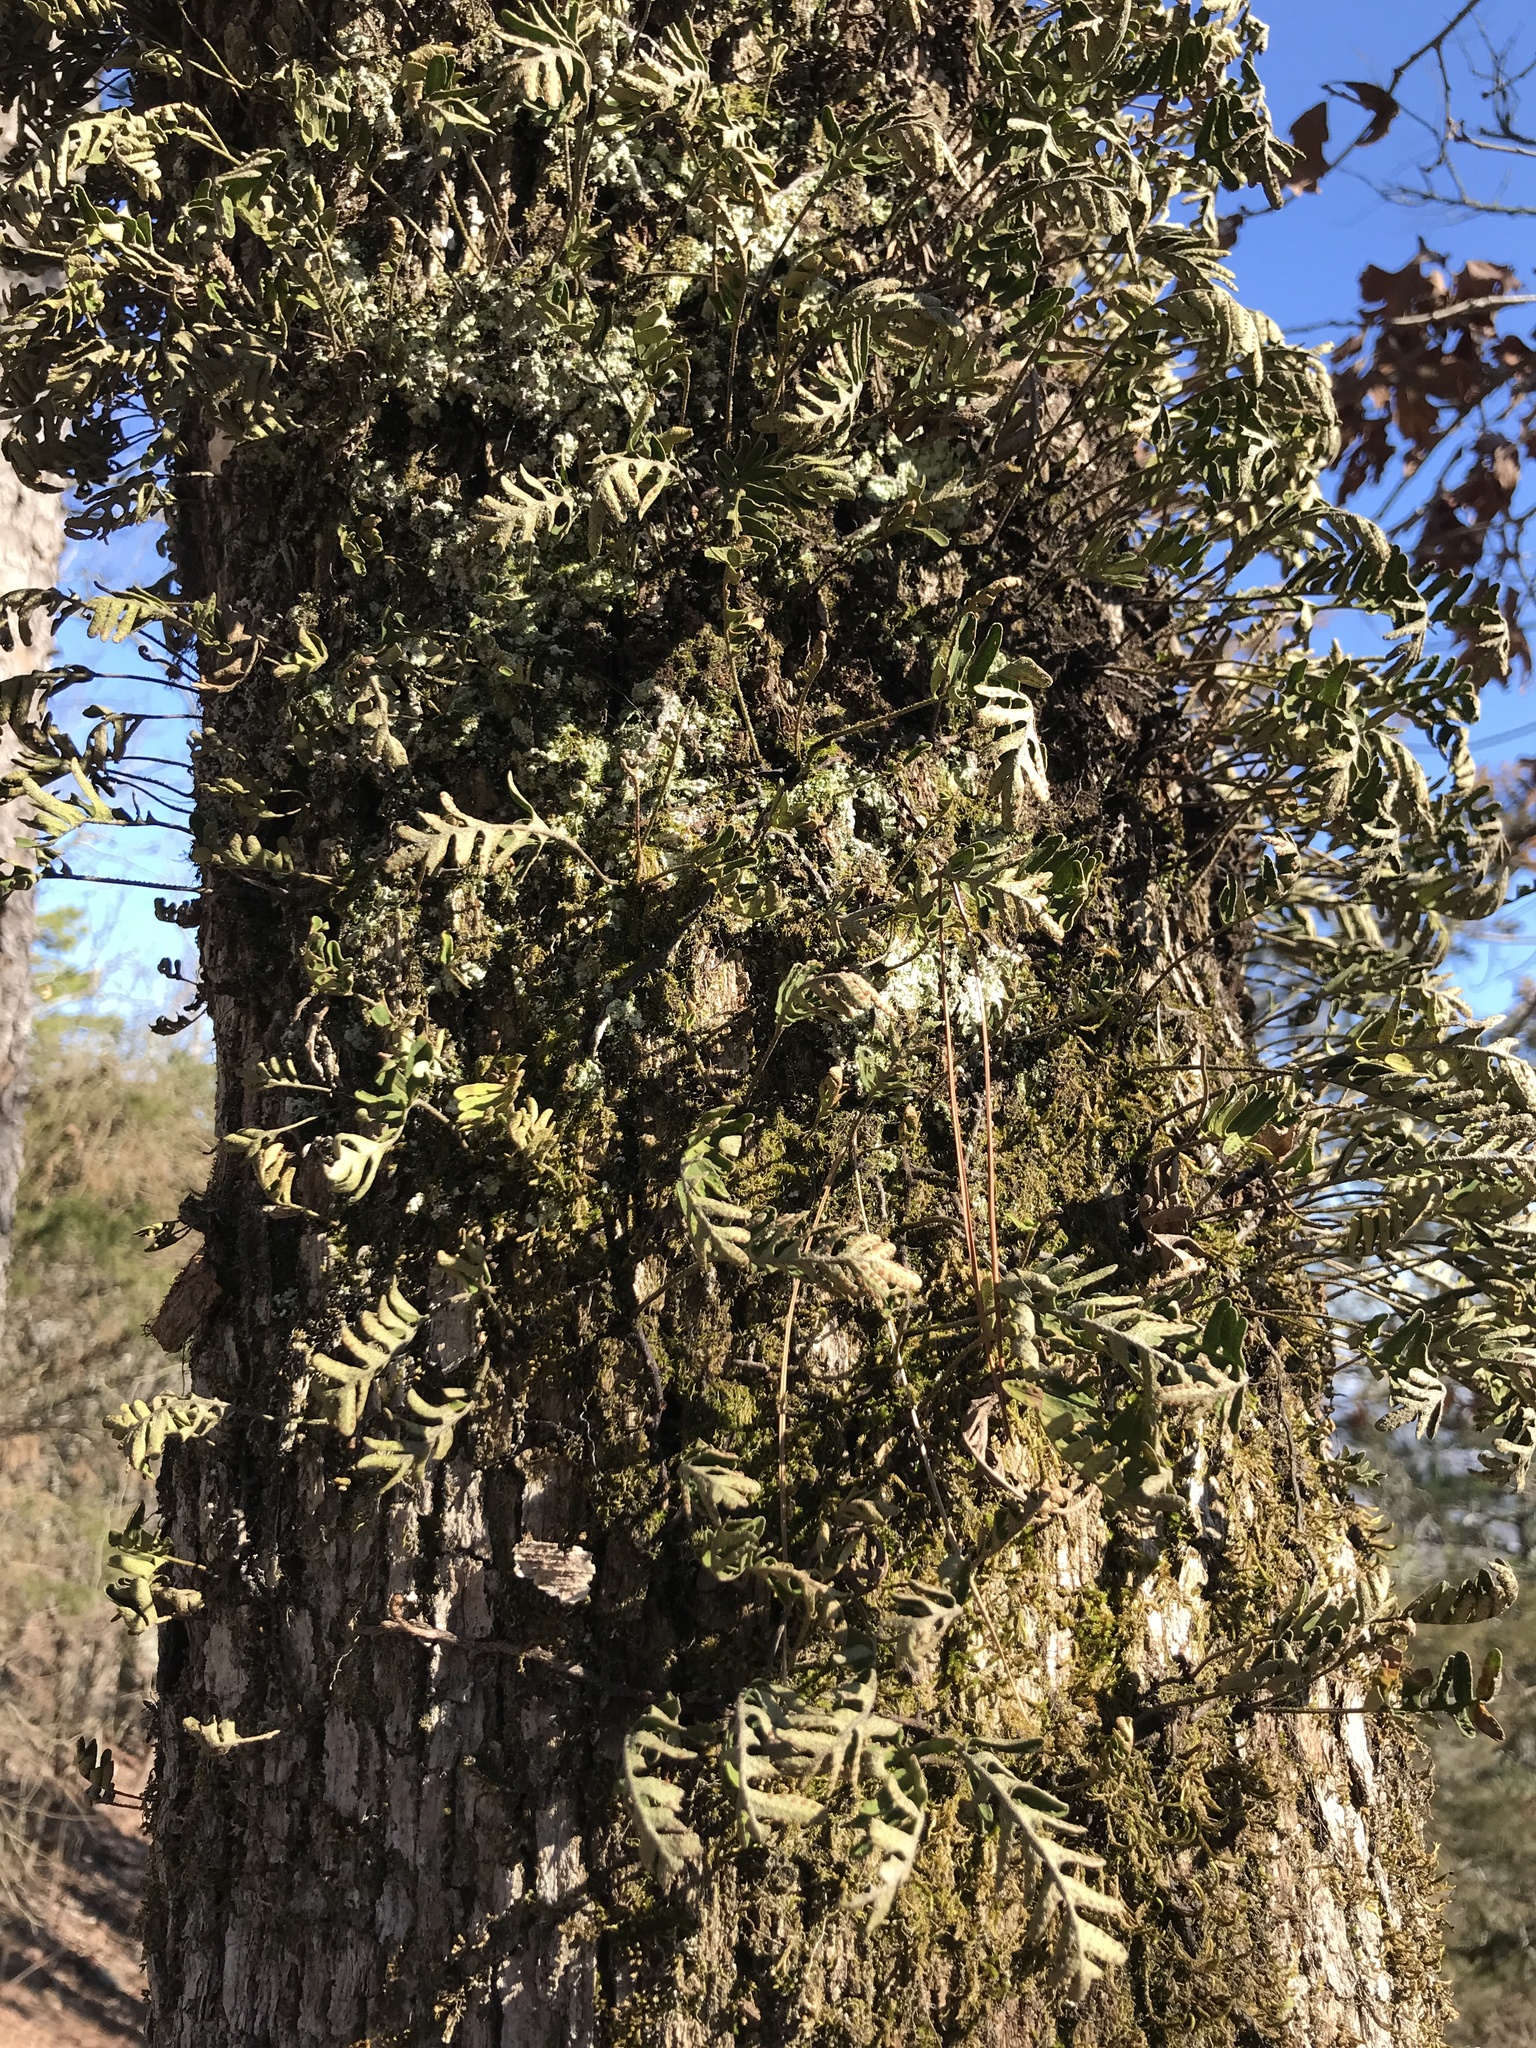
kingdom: Plantae
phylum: Tracheophyta
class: Polypodiopsida
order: Polypodiales
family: Polypodiaceae
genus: Pleopeltis
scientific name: Pleopeltis michauxiana
